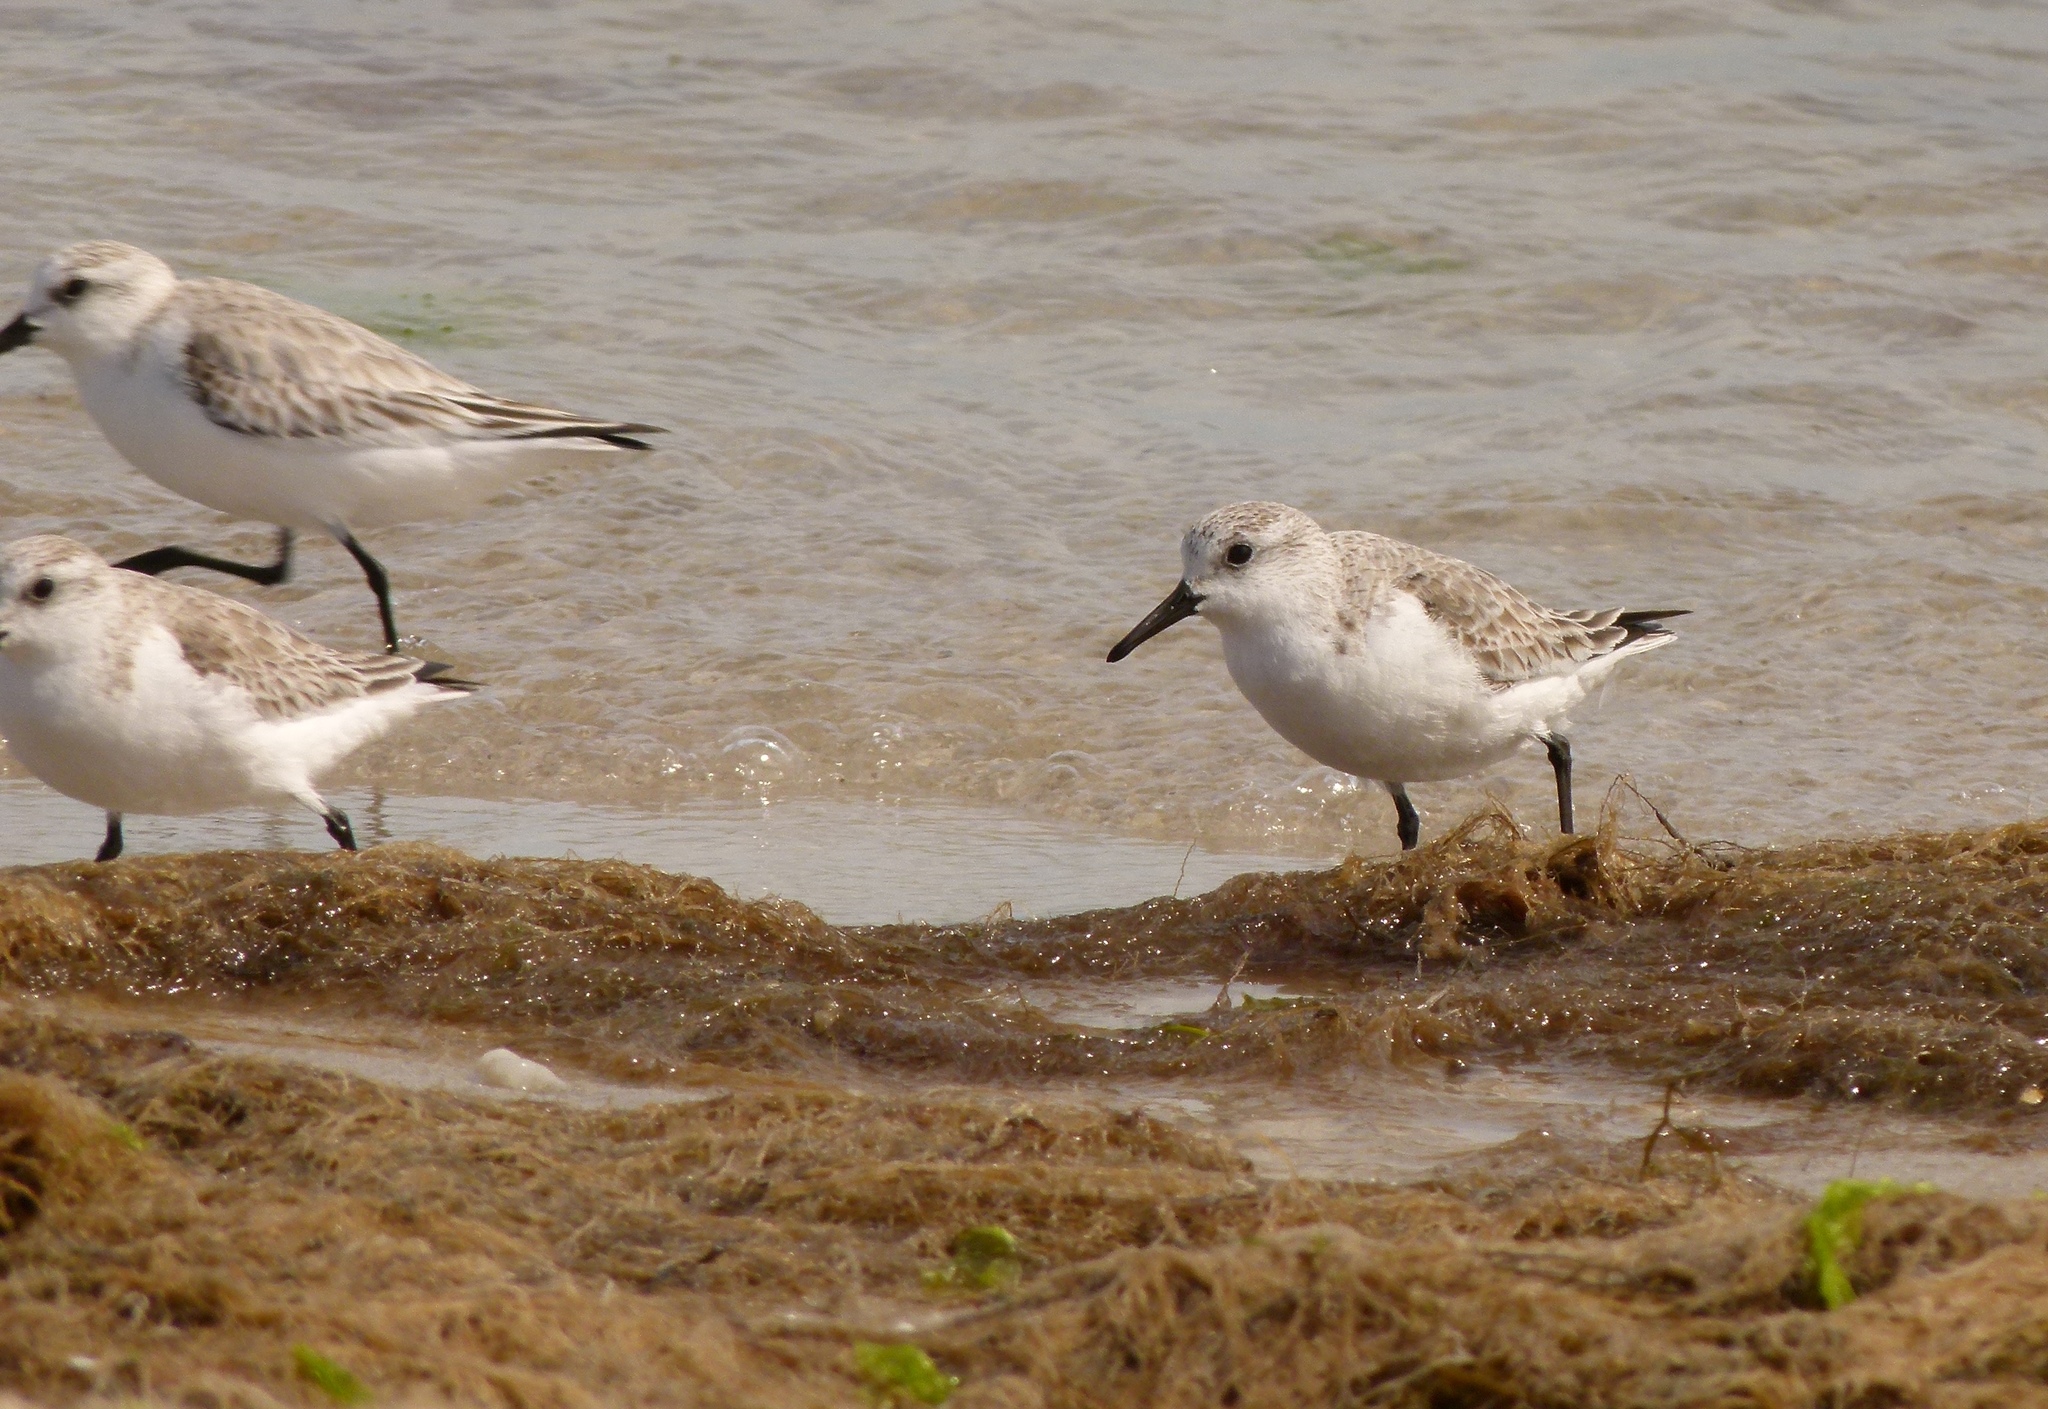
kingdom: Animalia
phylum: Chordata
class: Aves
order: Charadriiformes
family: Scolopacidae
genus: Calidris
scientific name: Calidris alba
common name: Sanderling
